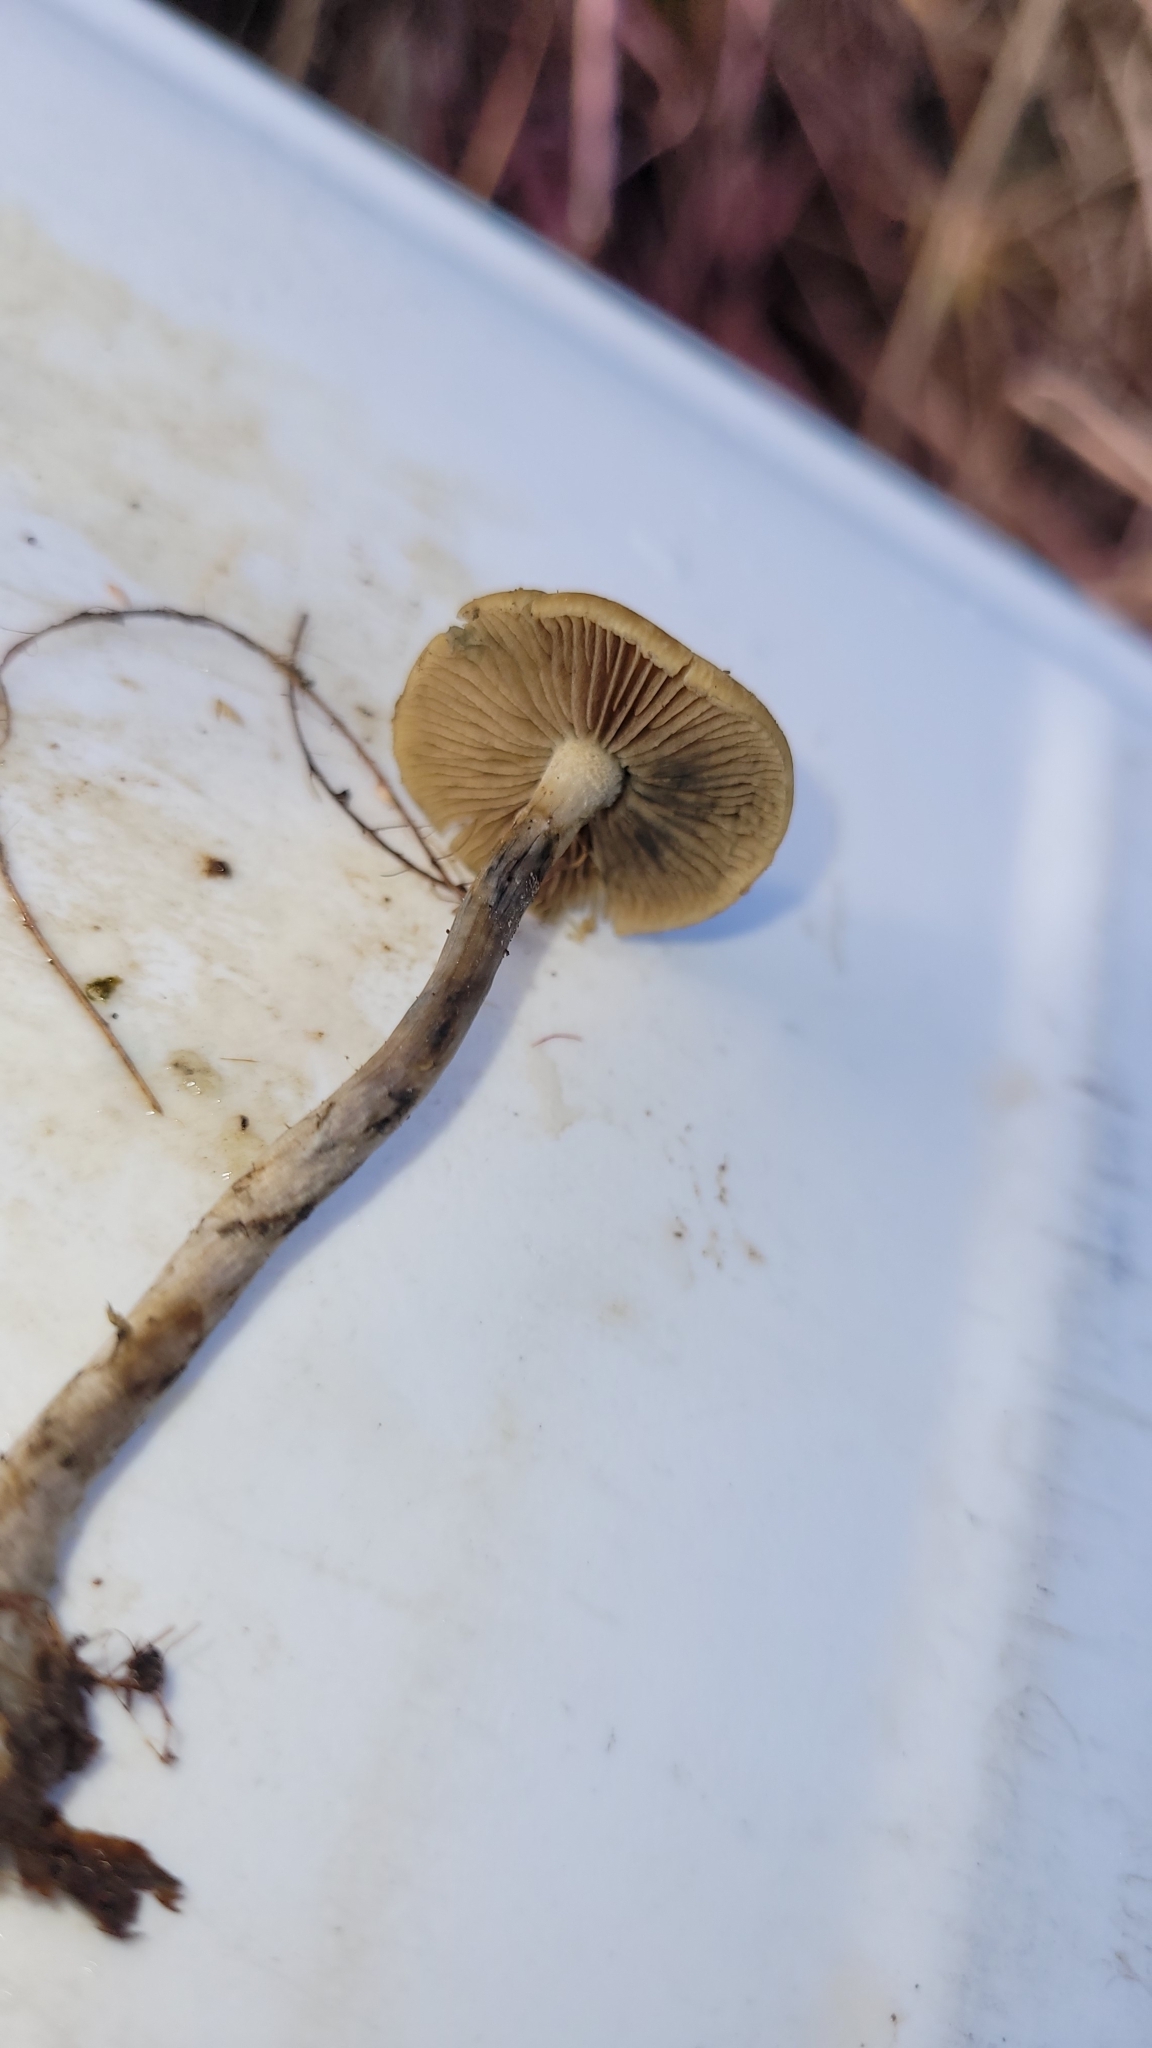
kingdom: Fungi
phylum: Basidiomycota
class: Agaricomycetes
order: Agaricales
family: Hymenogastraceae
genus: Psilocybe
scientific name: Psilocybe subaeruginosa
